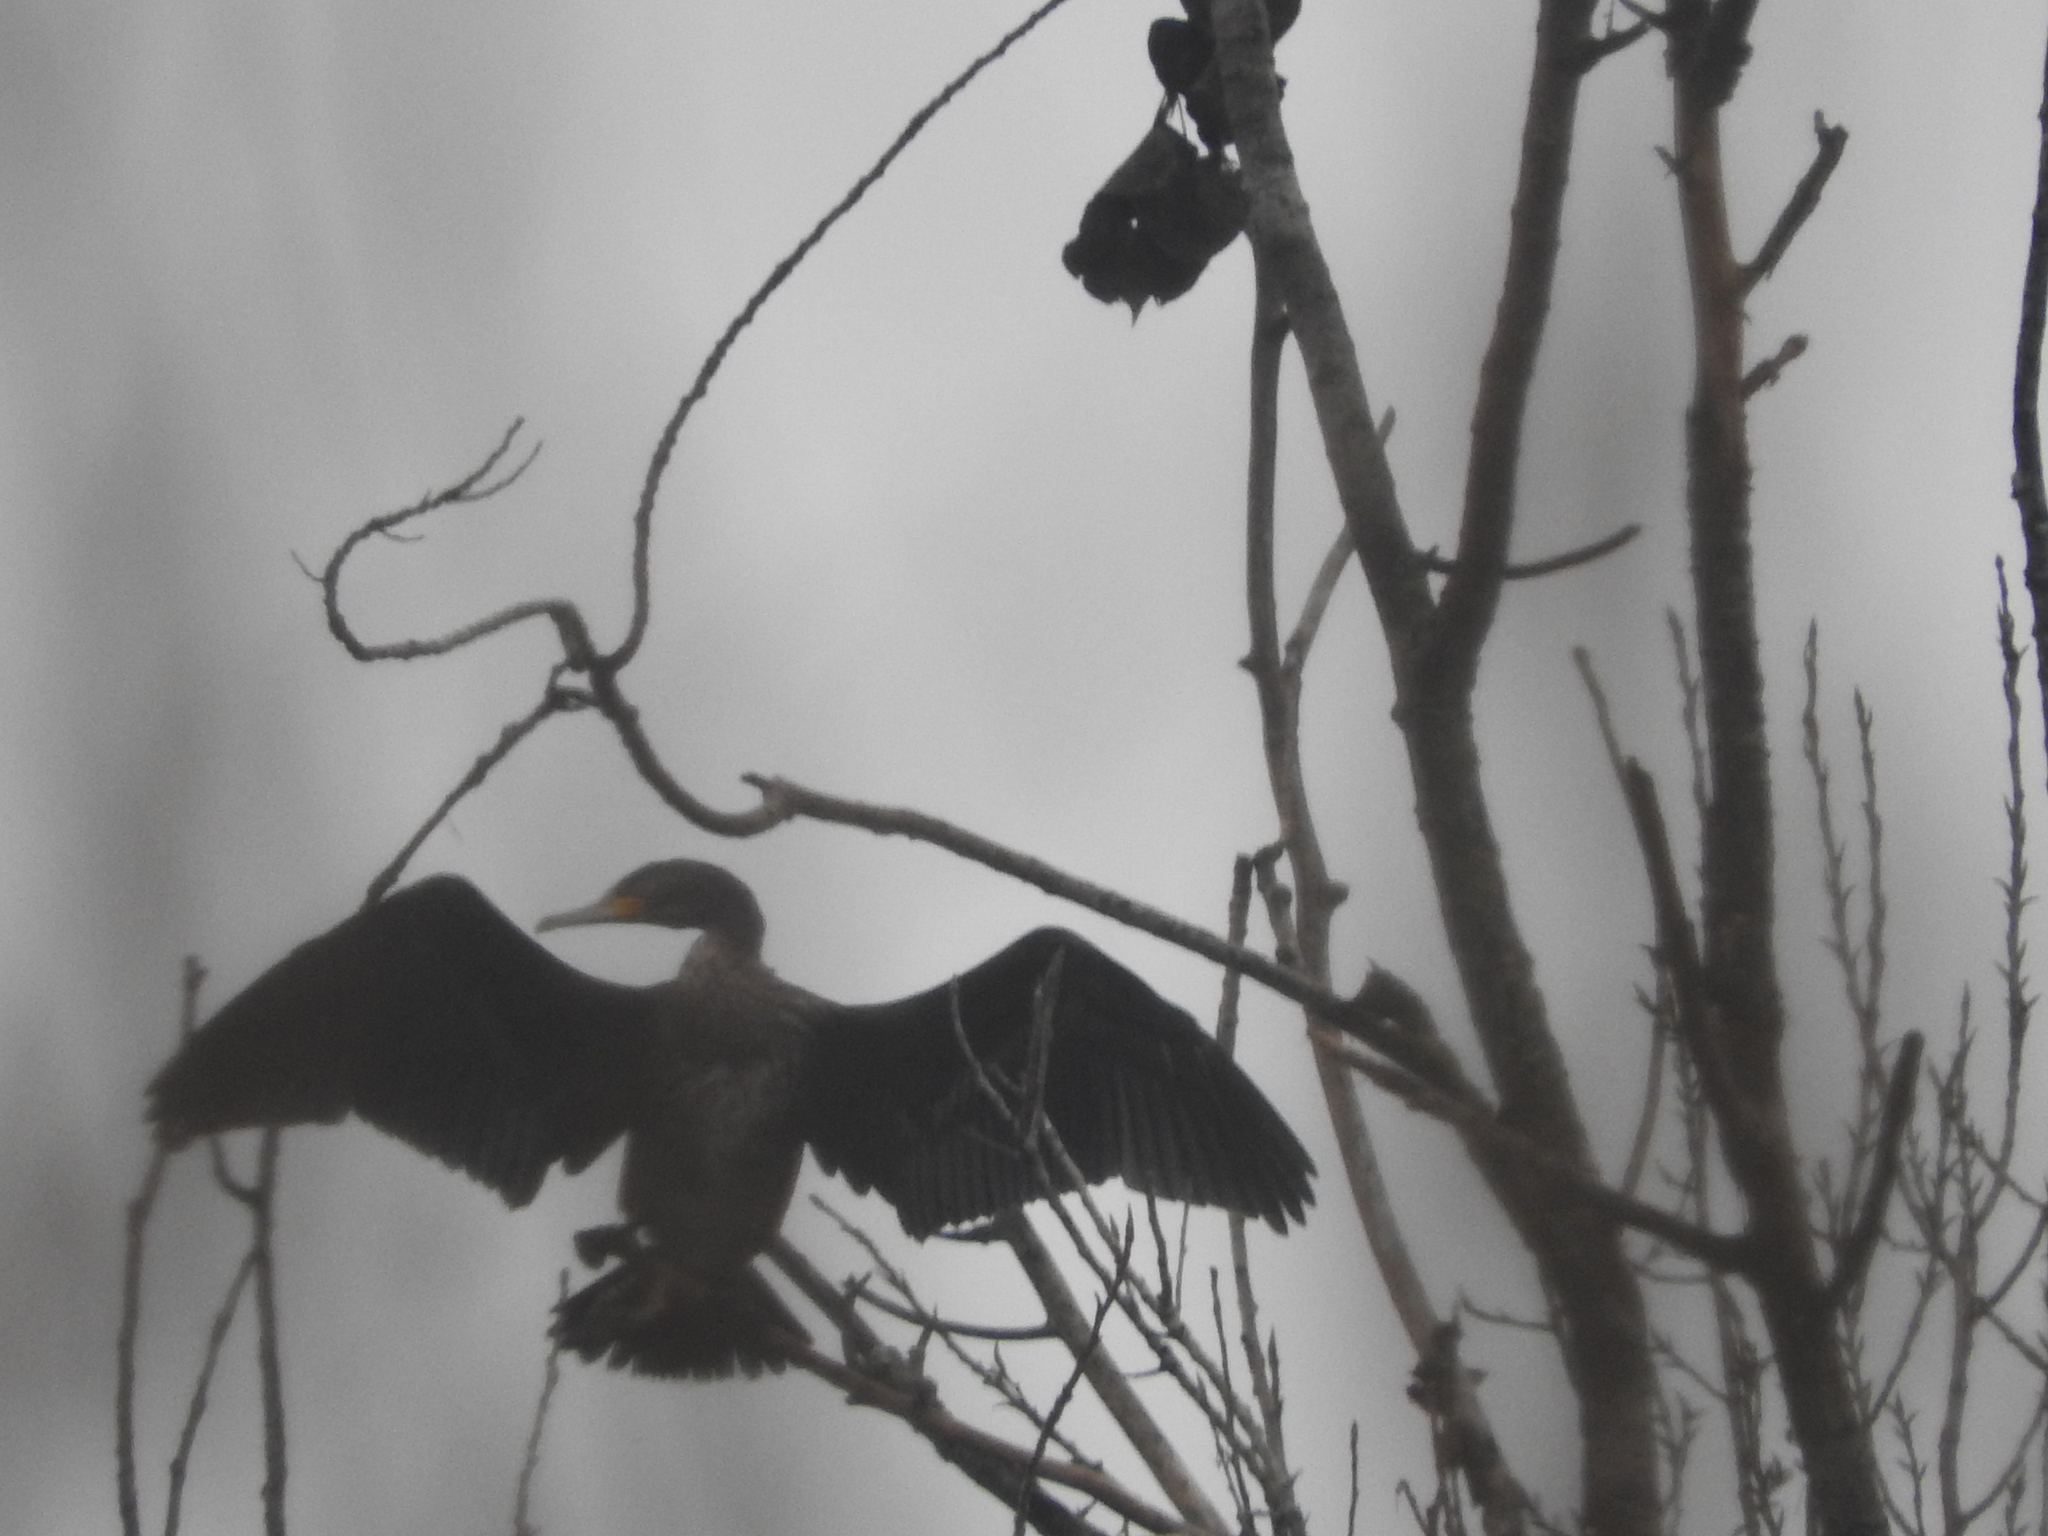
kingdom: Animalia
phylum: Chordata
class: Aves
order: Suliformes
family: Phalacrocoracidae
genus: Phalacrocorax
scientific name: Phalacrocorax carbo
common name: Great cormorant
